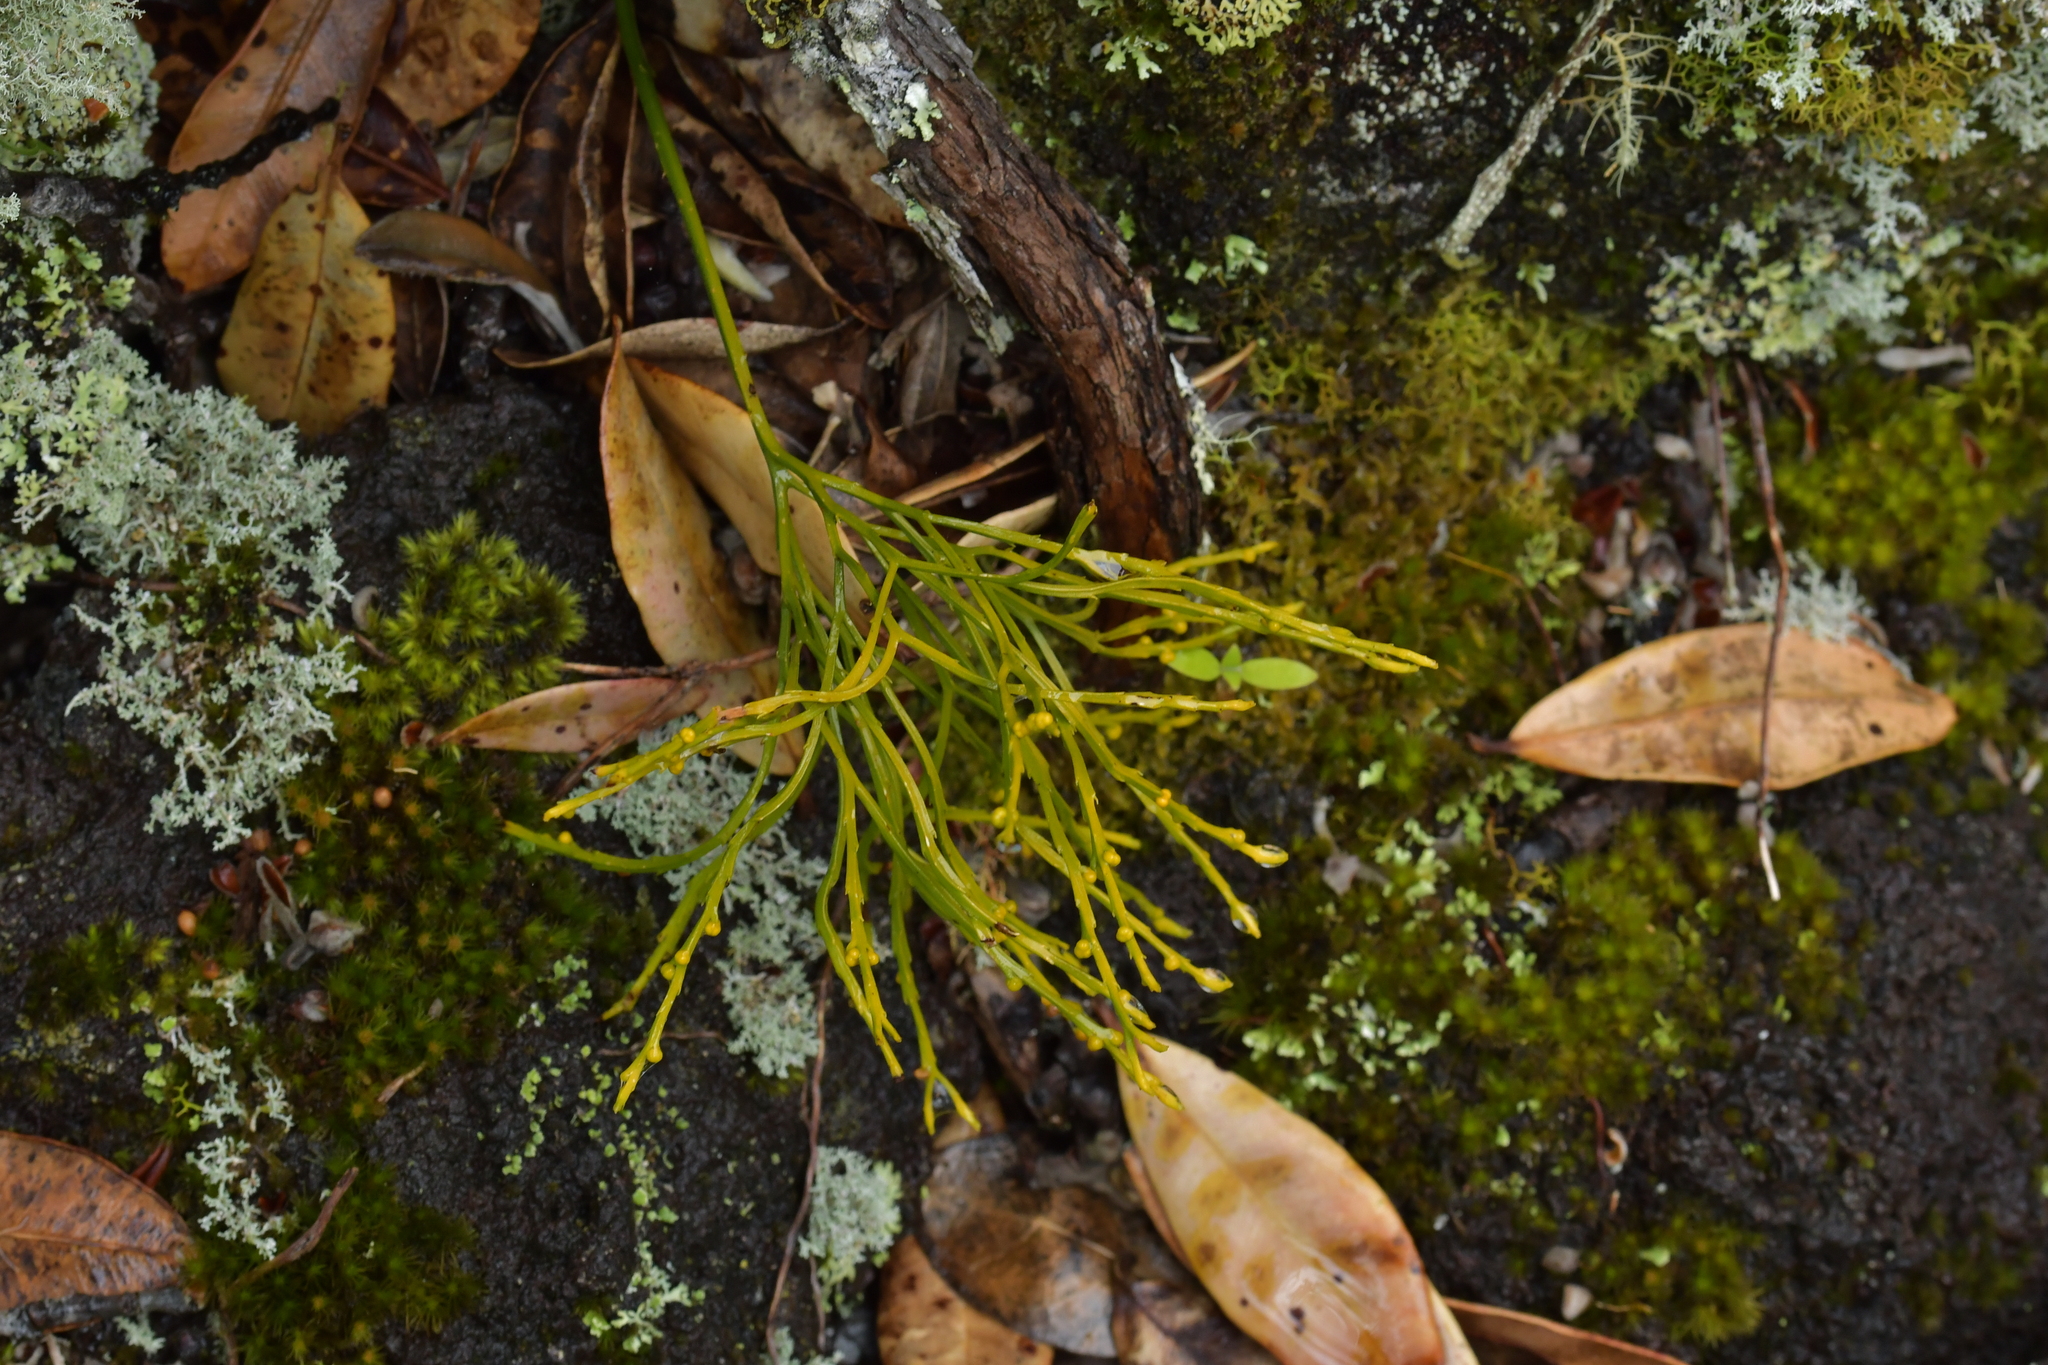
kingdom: Plantae
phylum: Tracheophyta
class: Polypodiopsida
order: Psilotales
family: Psilotaceae
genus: Psilotum
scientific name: Psilotum nudum
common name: Skeleton fork fern
